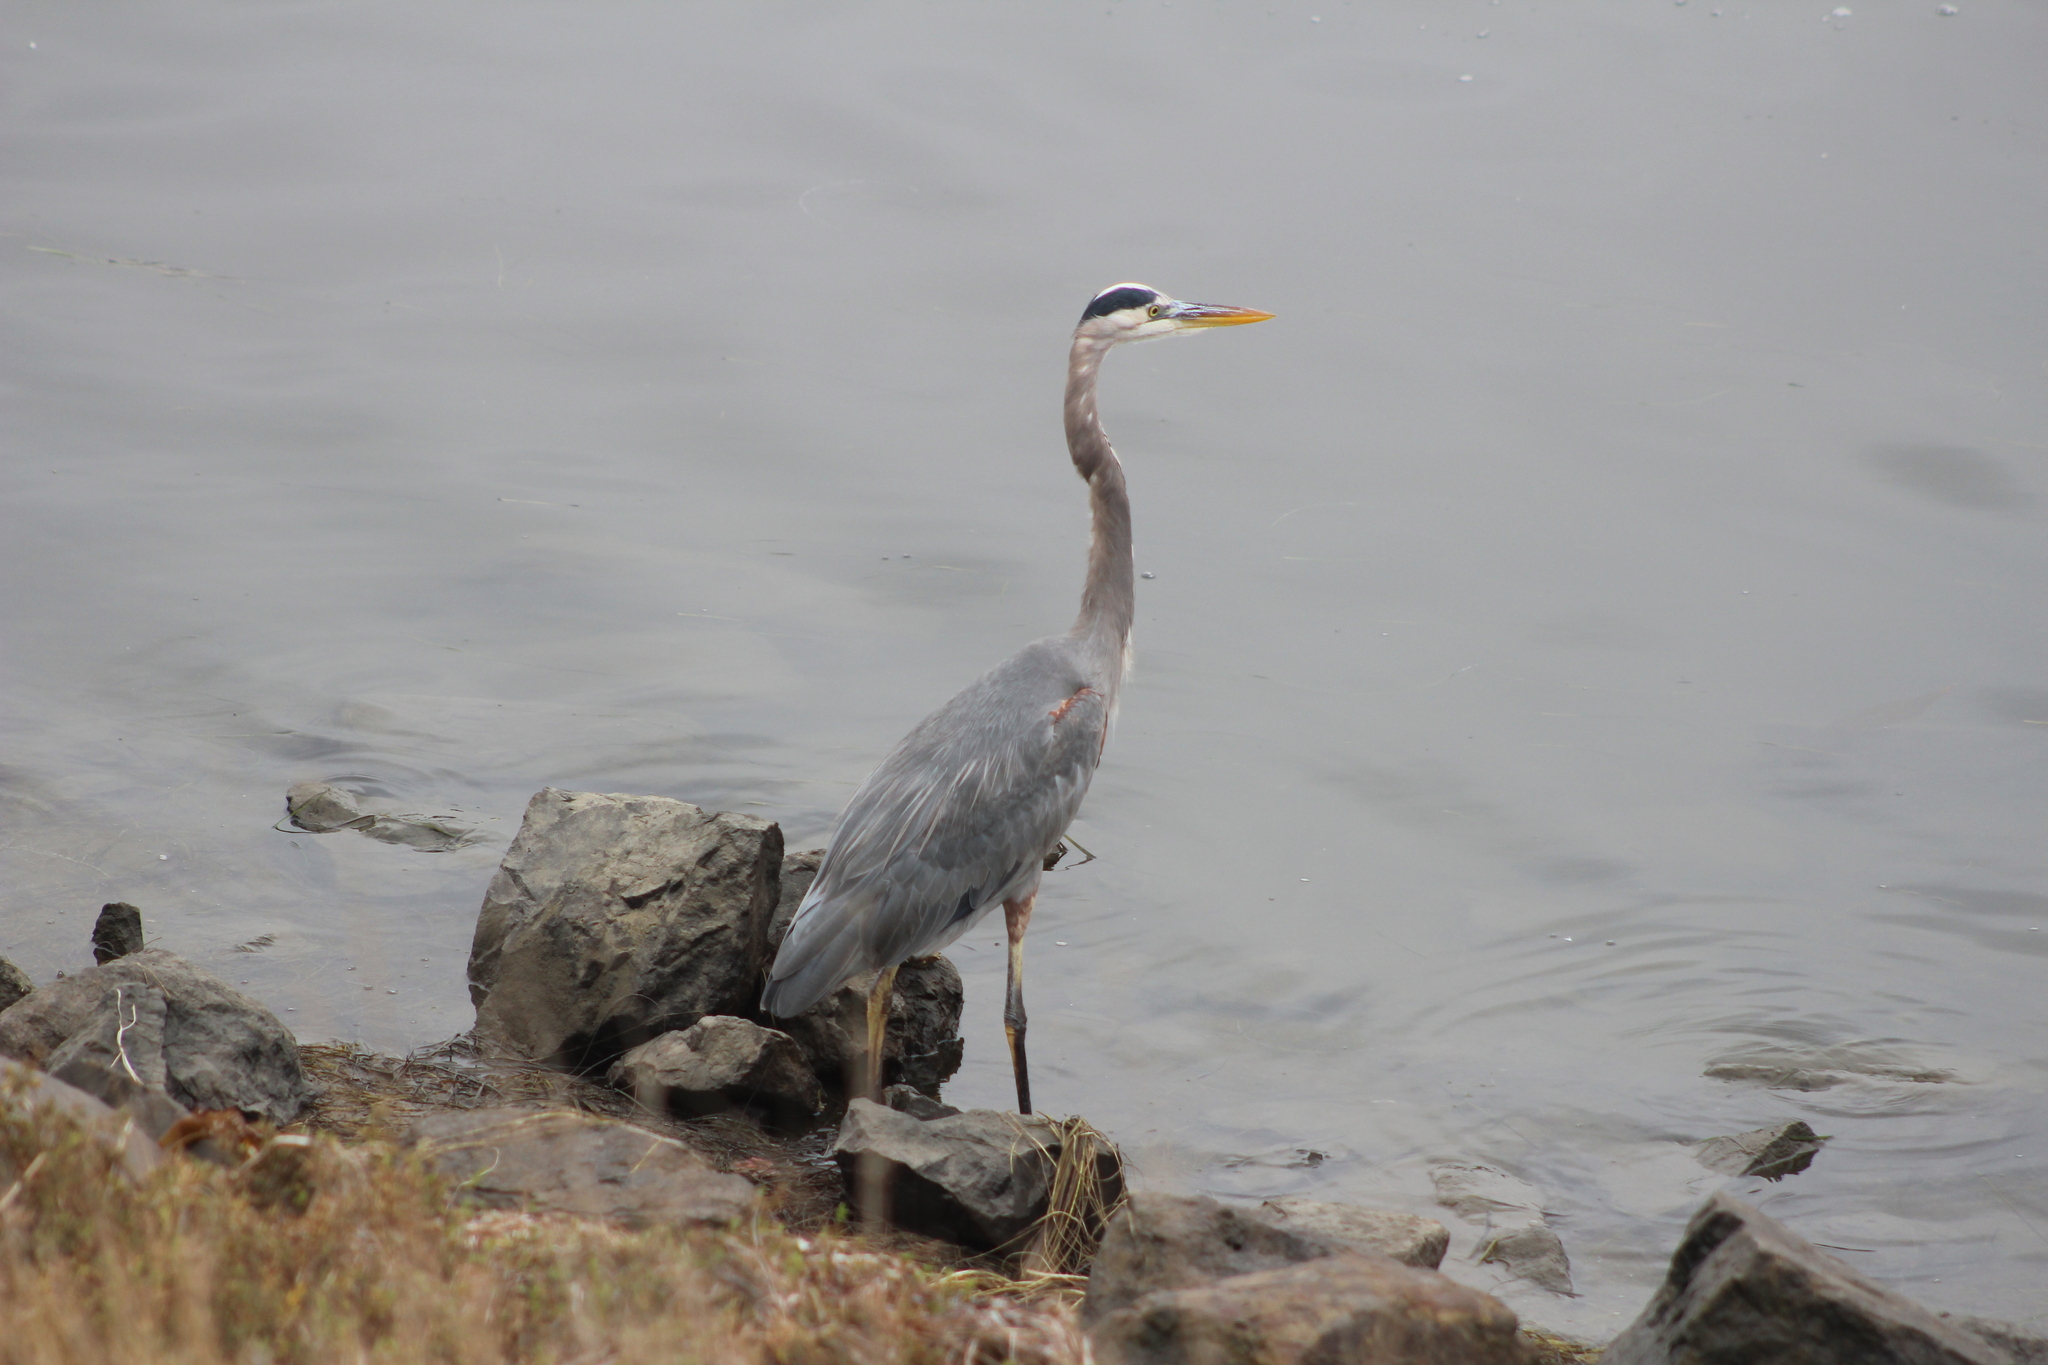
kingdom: Animalia
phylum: Chordata
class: Aves
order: Pelecaniformes
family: Ardeidae
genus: Ardea
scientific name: Ardea herodias
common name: Great blue heron
